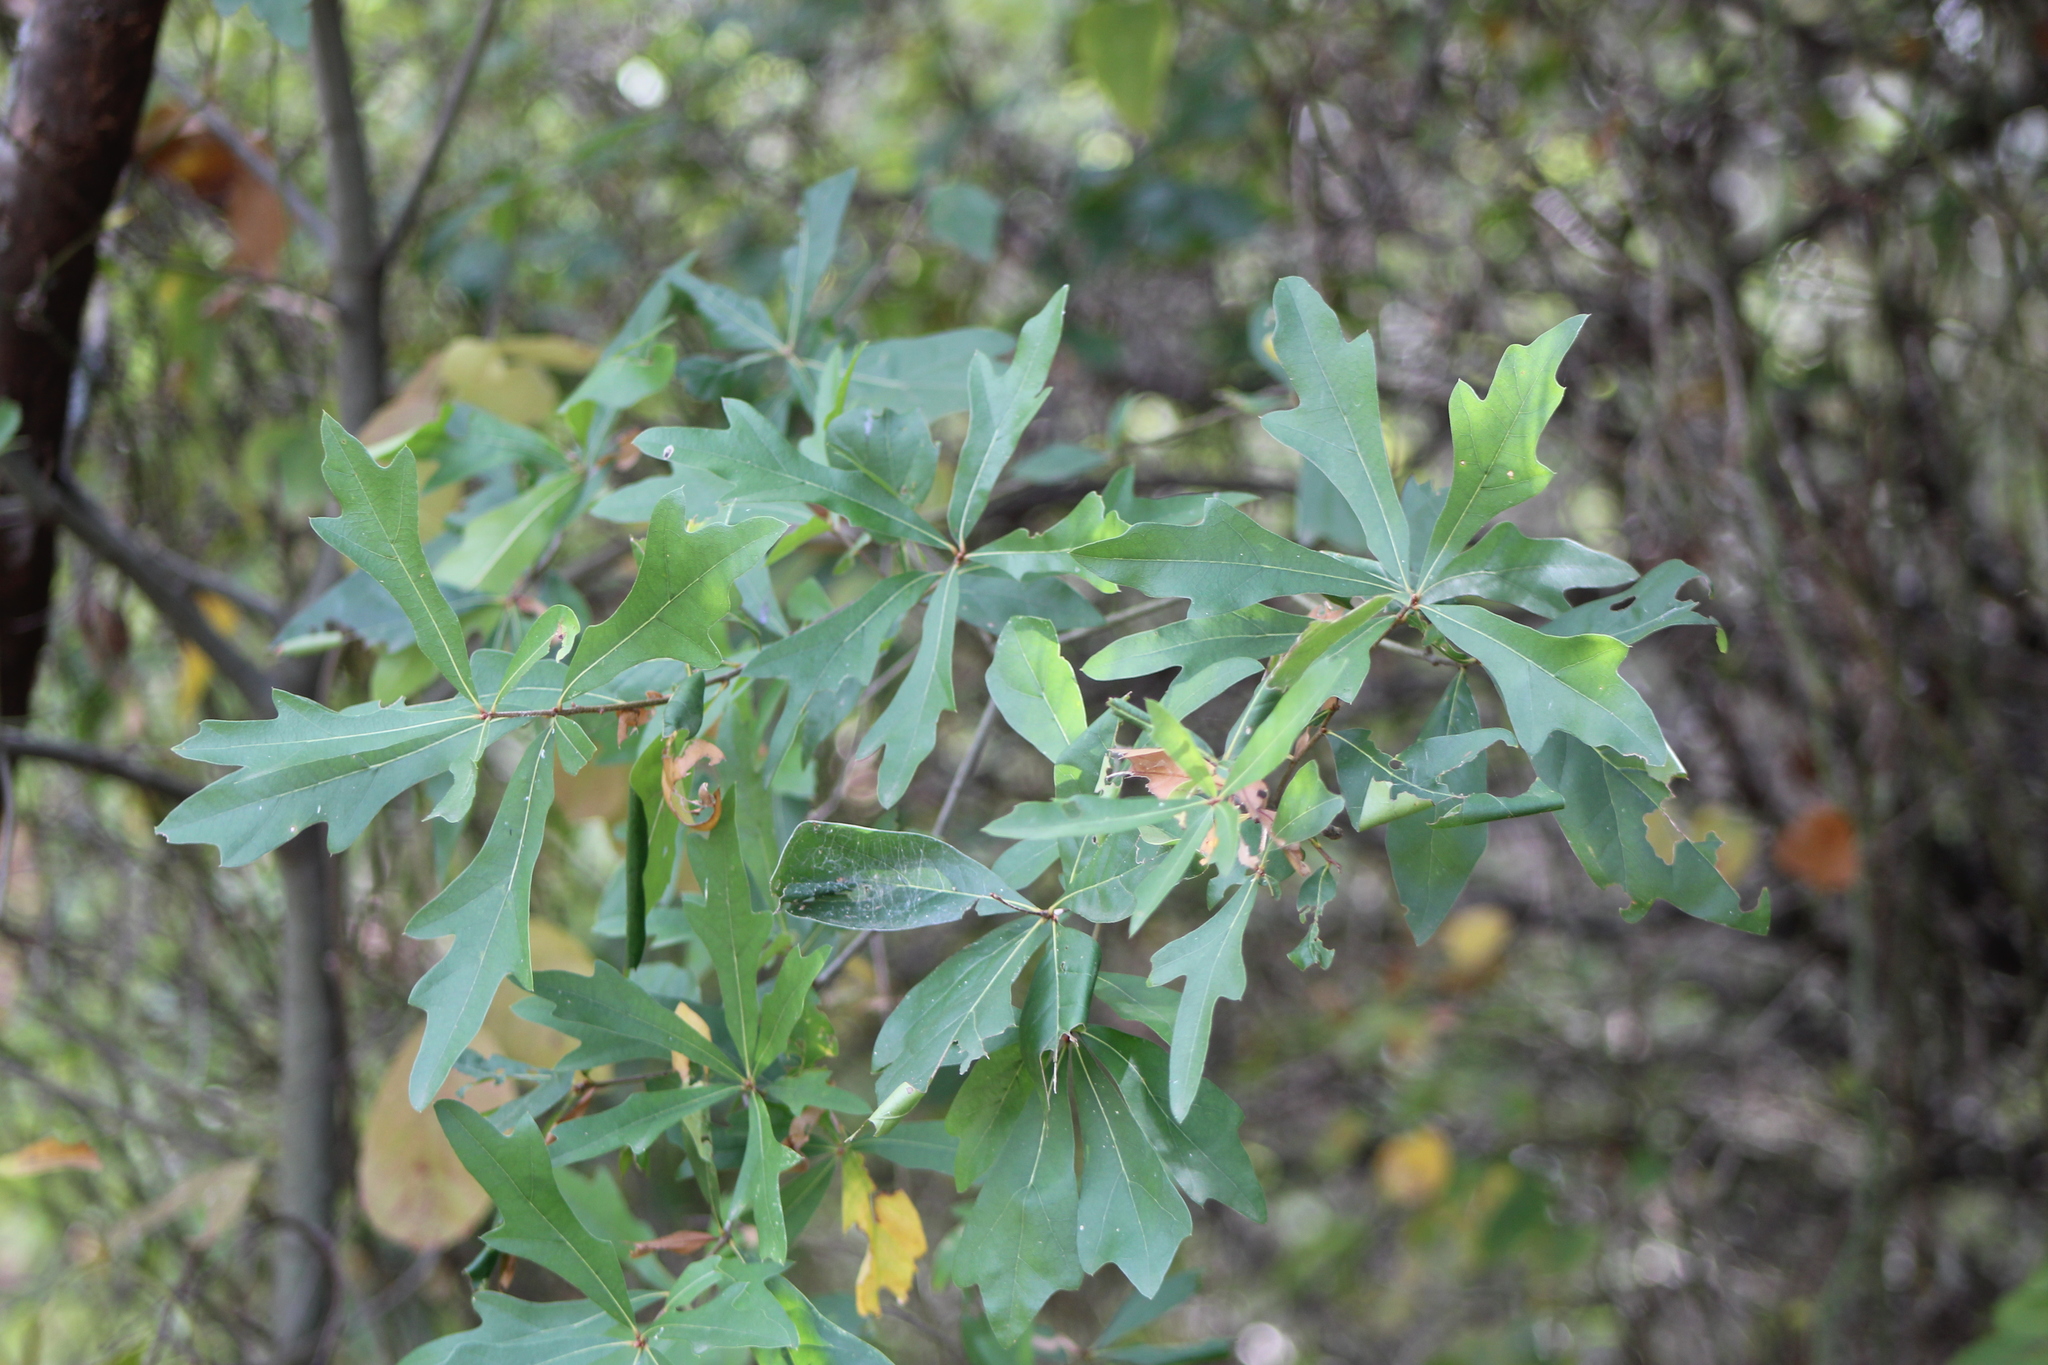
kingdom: Plantae
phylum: Tracheophyta
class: Magnoliopsida
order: Fagales
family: Fagaceae
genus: Quercus
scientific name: Quercus nigra
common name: Water oak
